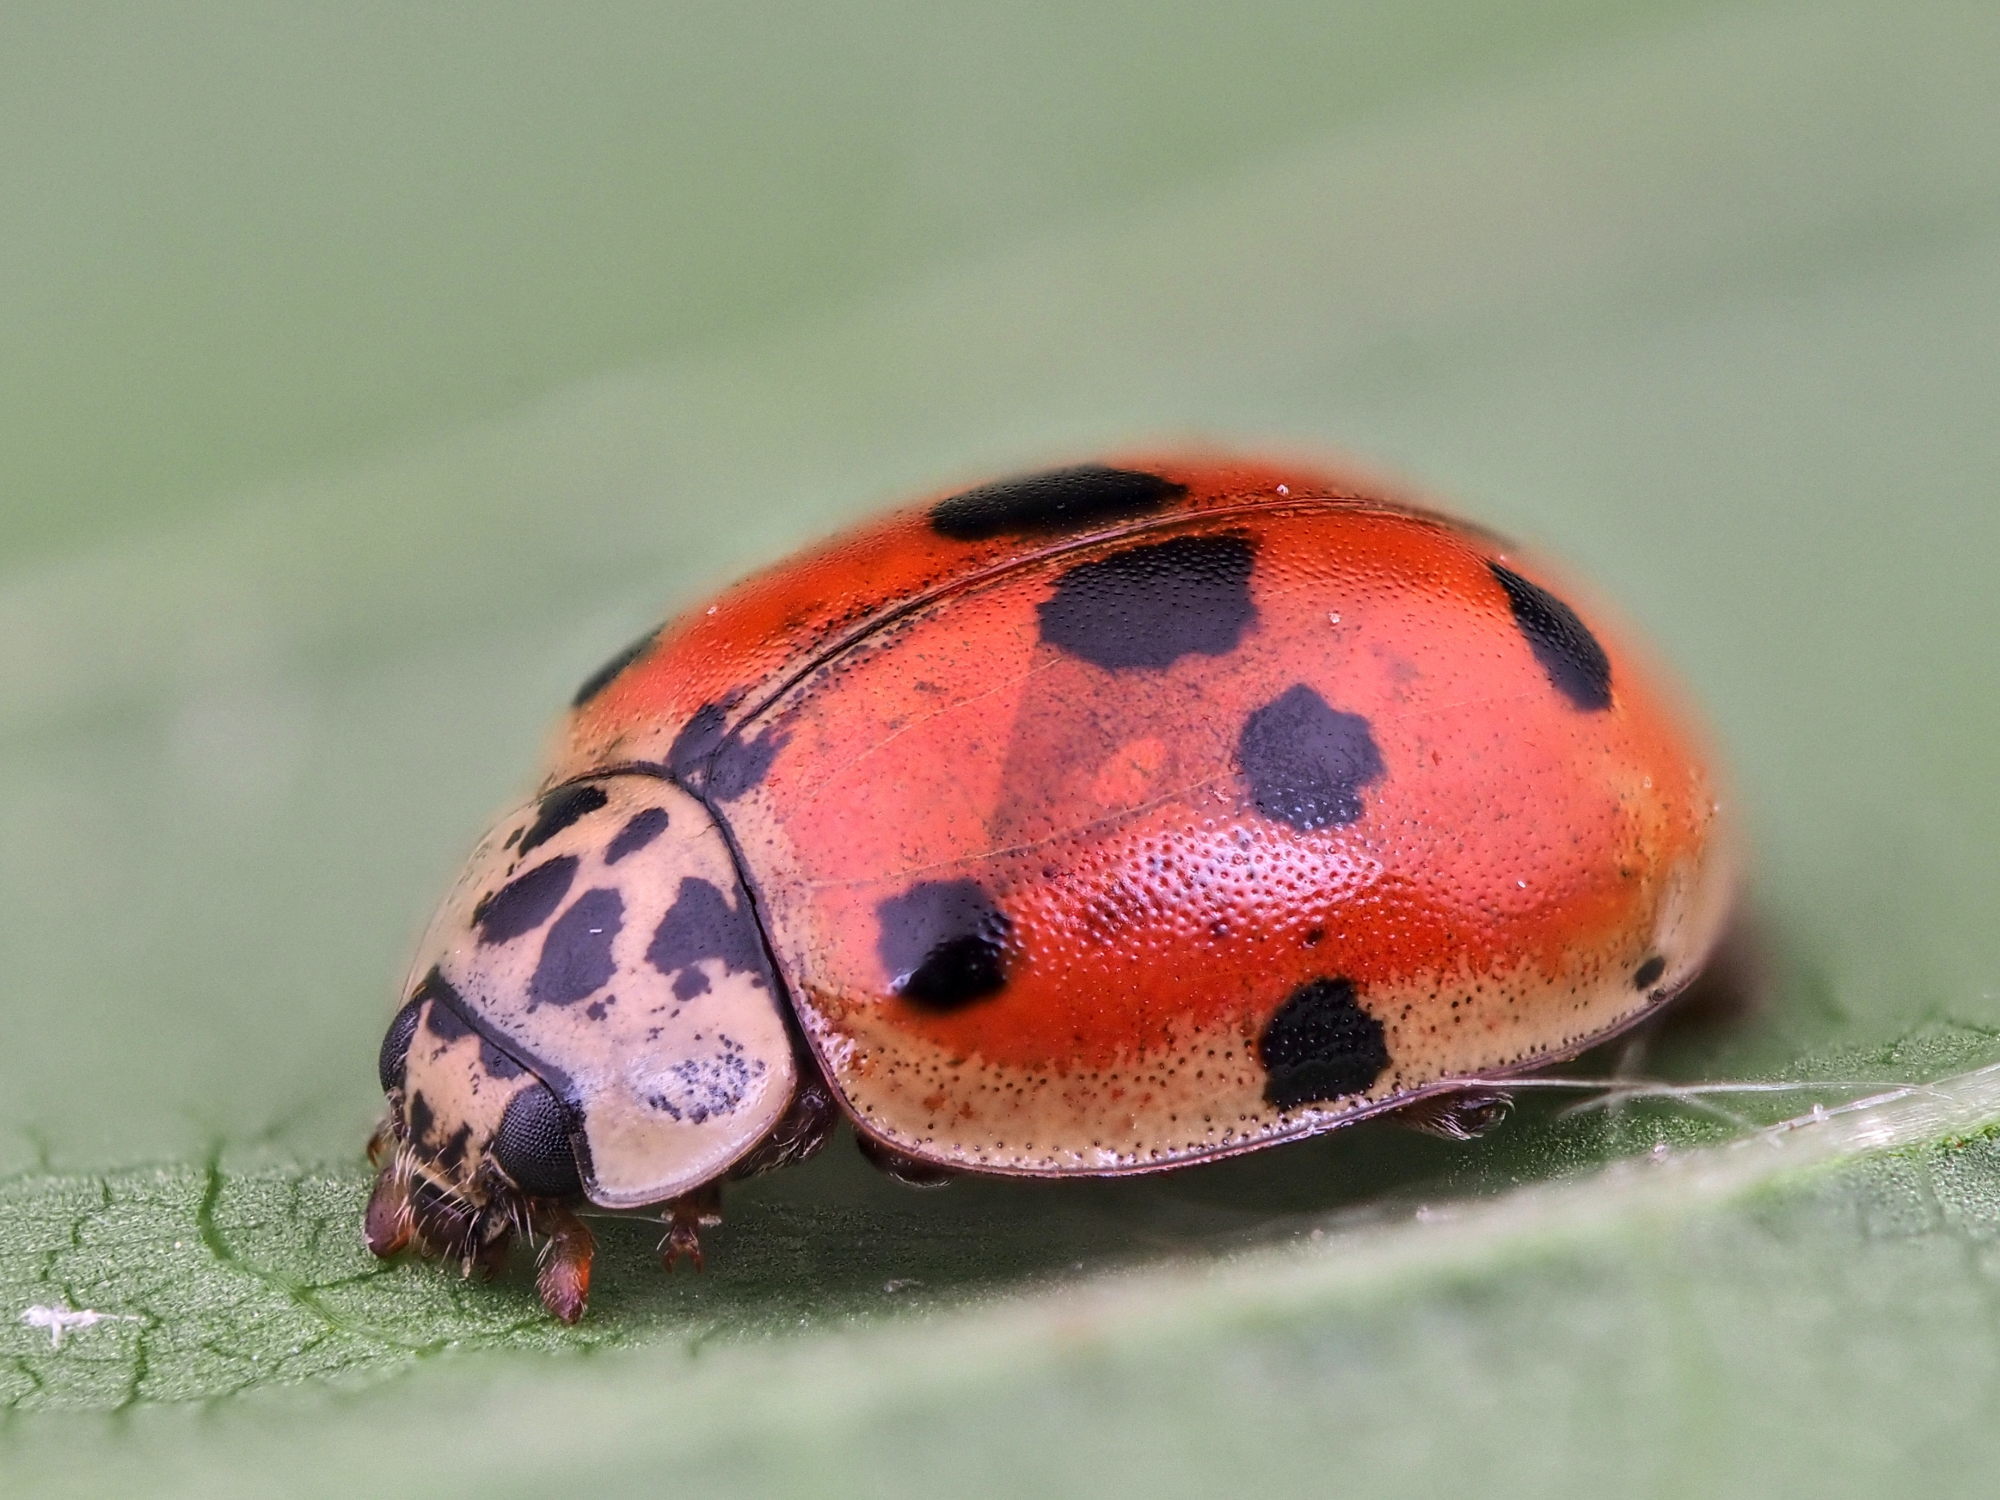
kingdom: Animalia
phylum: Arthropoda
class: Insecta
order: Coleoptera
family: Coccinellidae
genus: Adalia
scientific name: Adalia decempunctata
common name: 10-spot ladybird
